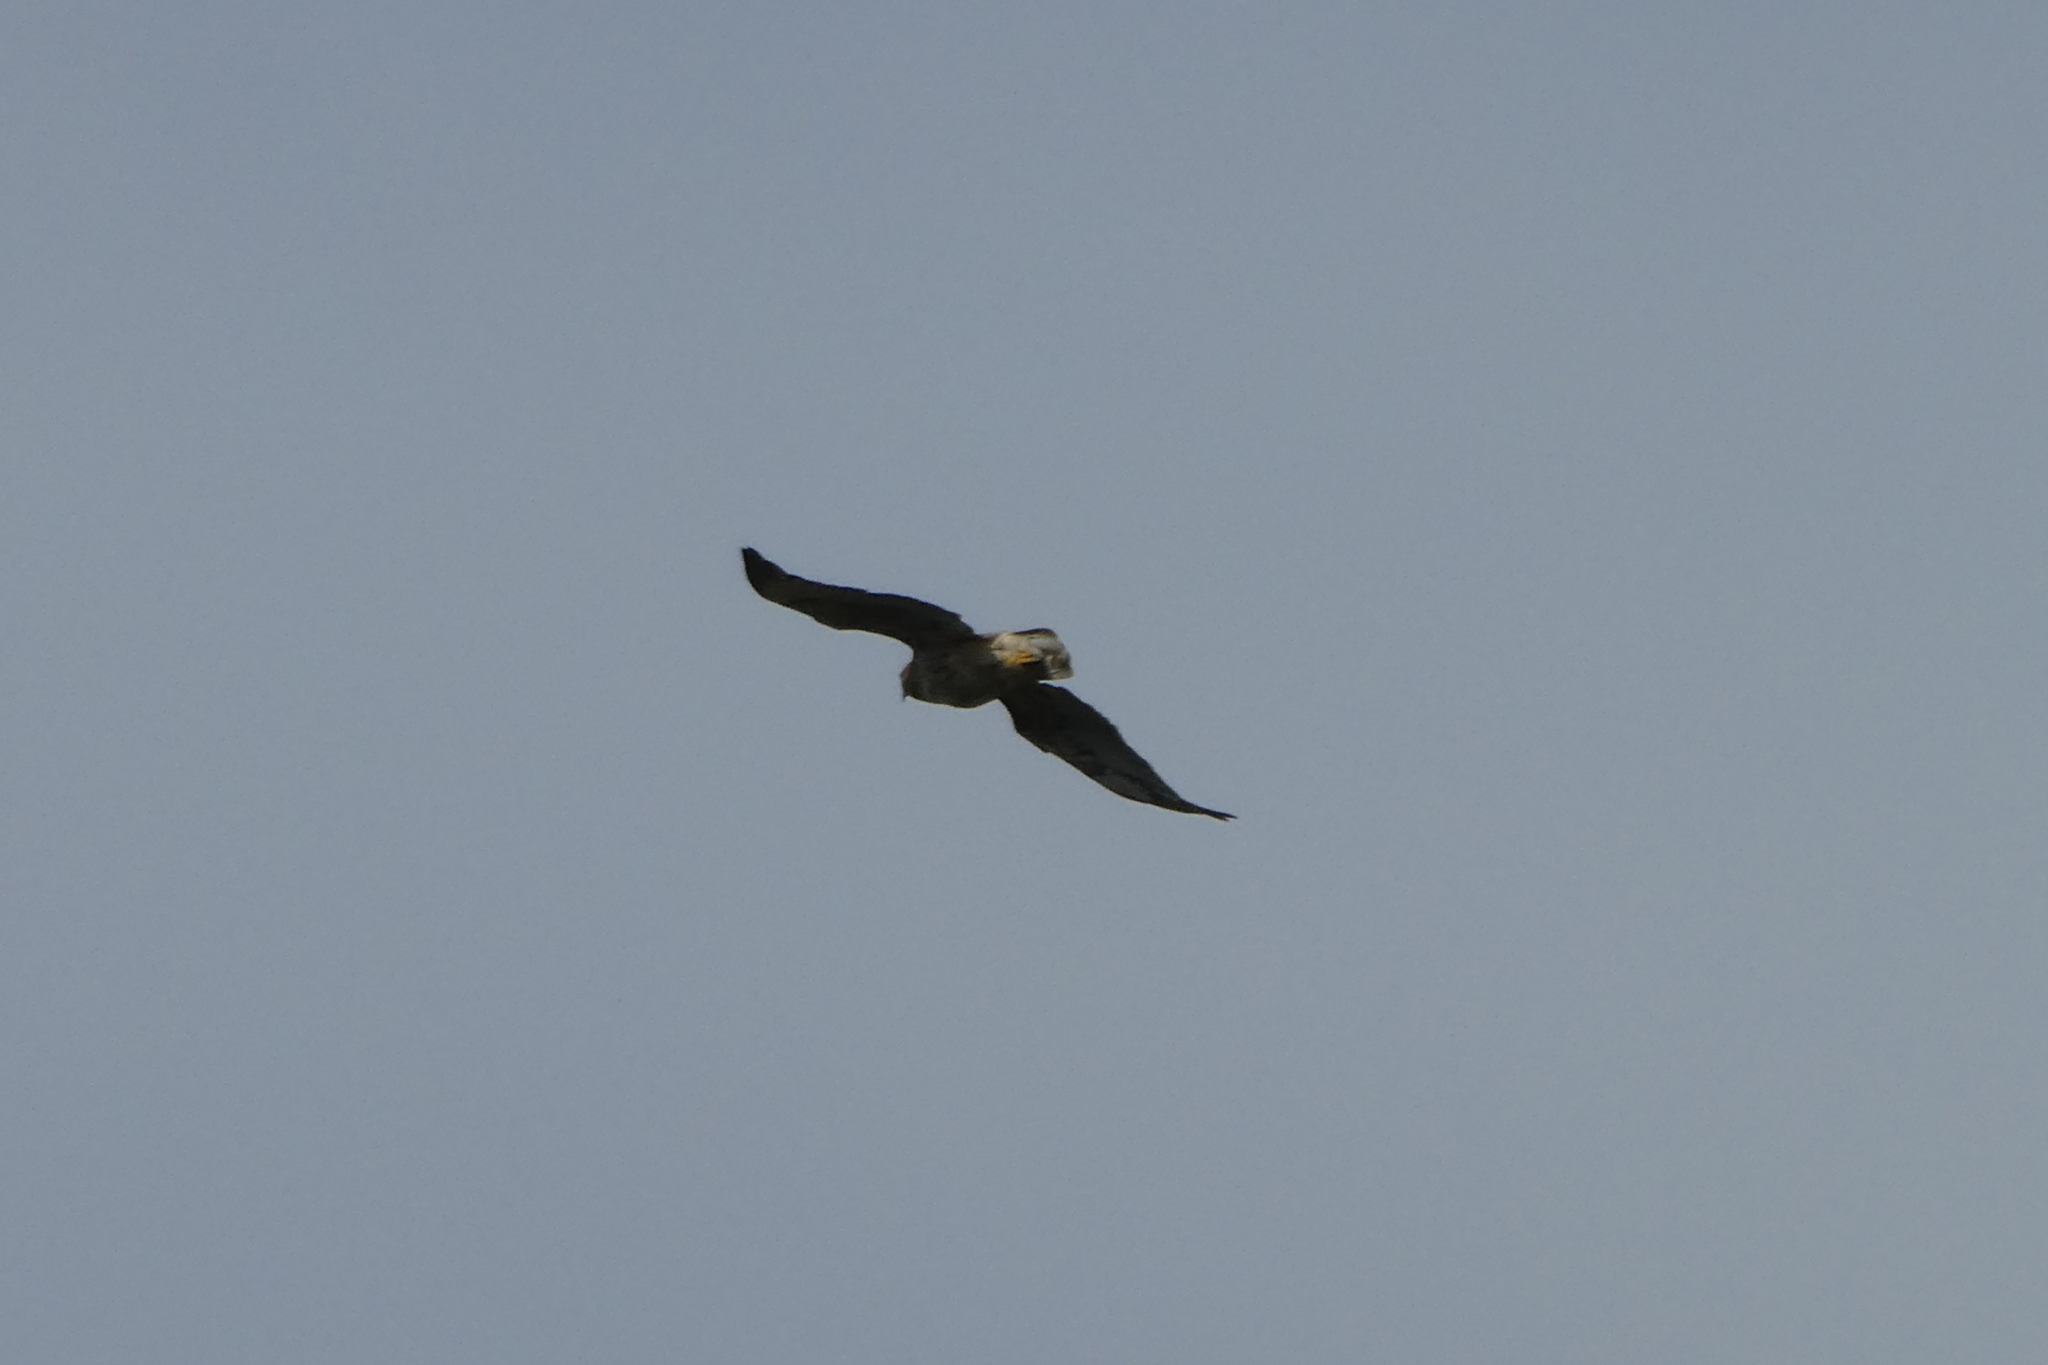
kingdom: Animalia
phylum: Chordata
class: Aves
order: Accipitriformes
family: Accipitridae
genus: Buteo
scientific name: Buteo jamaicensis
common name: Red-tailed hawk
